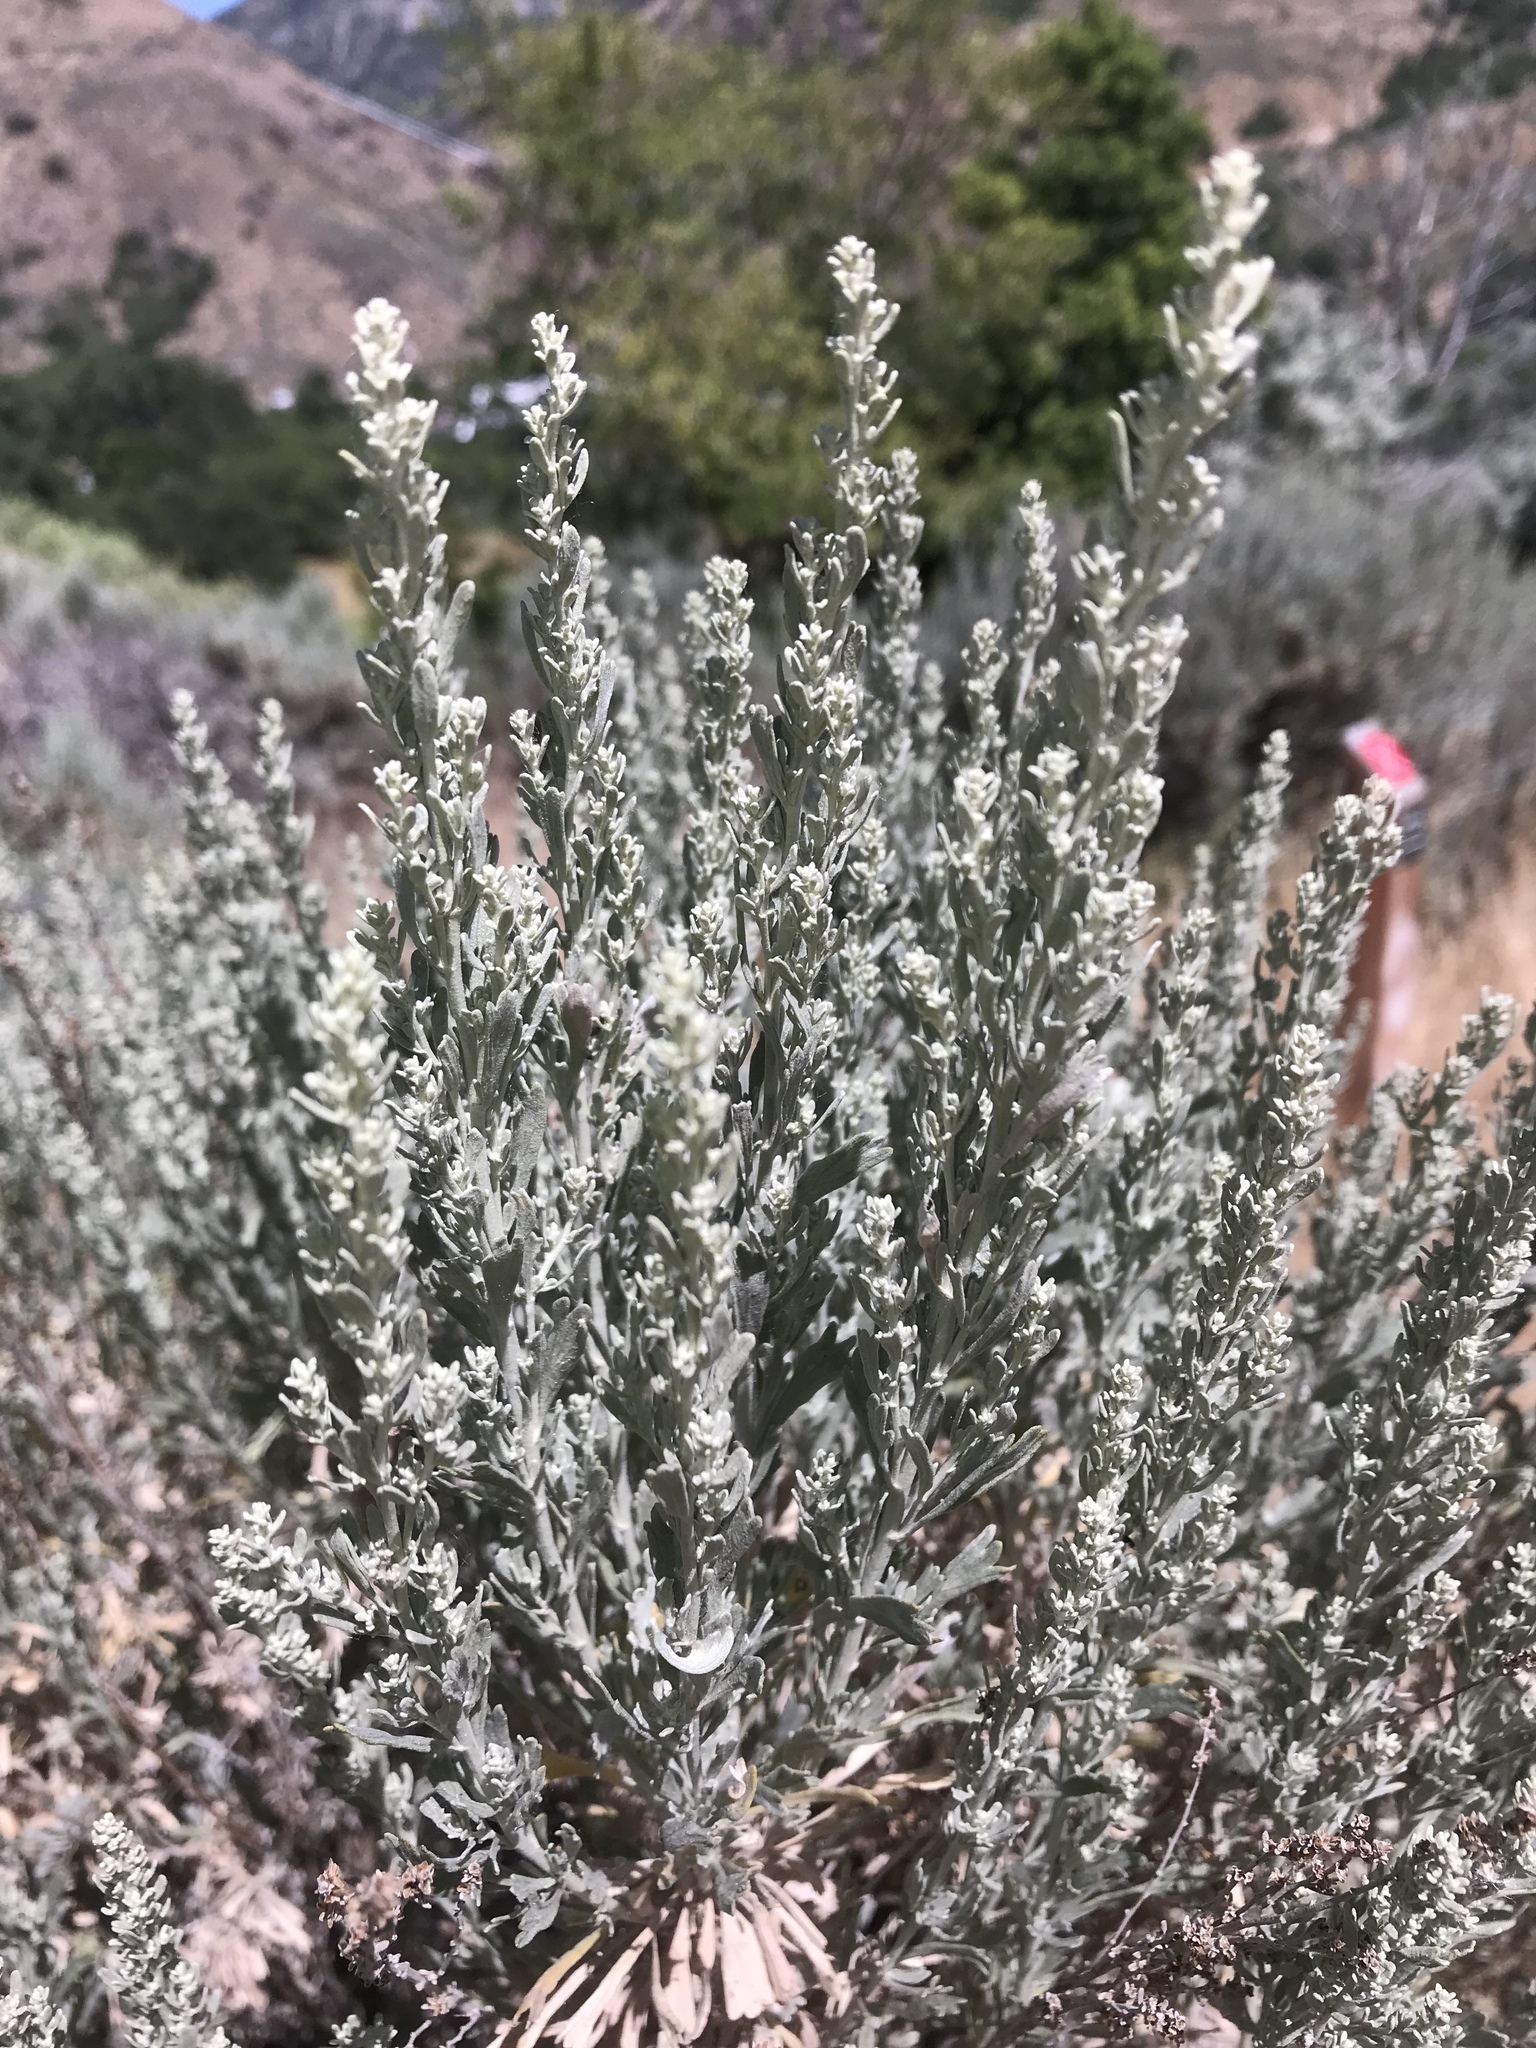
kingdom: Plantae
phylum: Tracheophyta
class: Magnoliopsida
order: Asterales
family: Asteraceae
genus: Artemisia
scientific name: Artemisia tridentata
